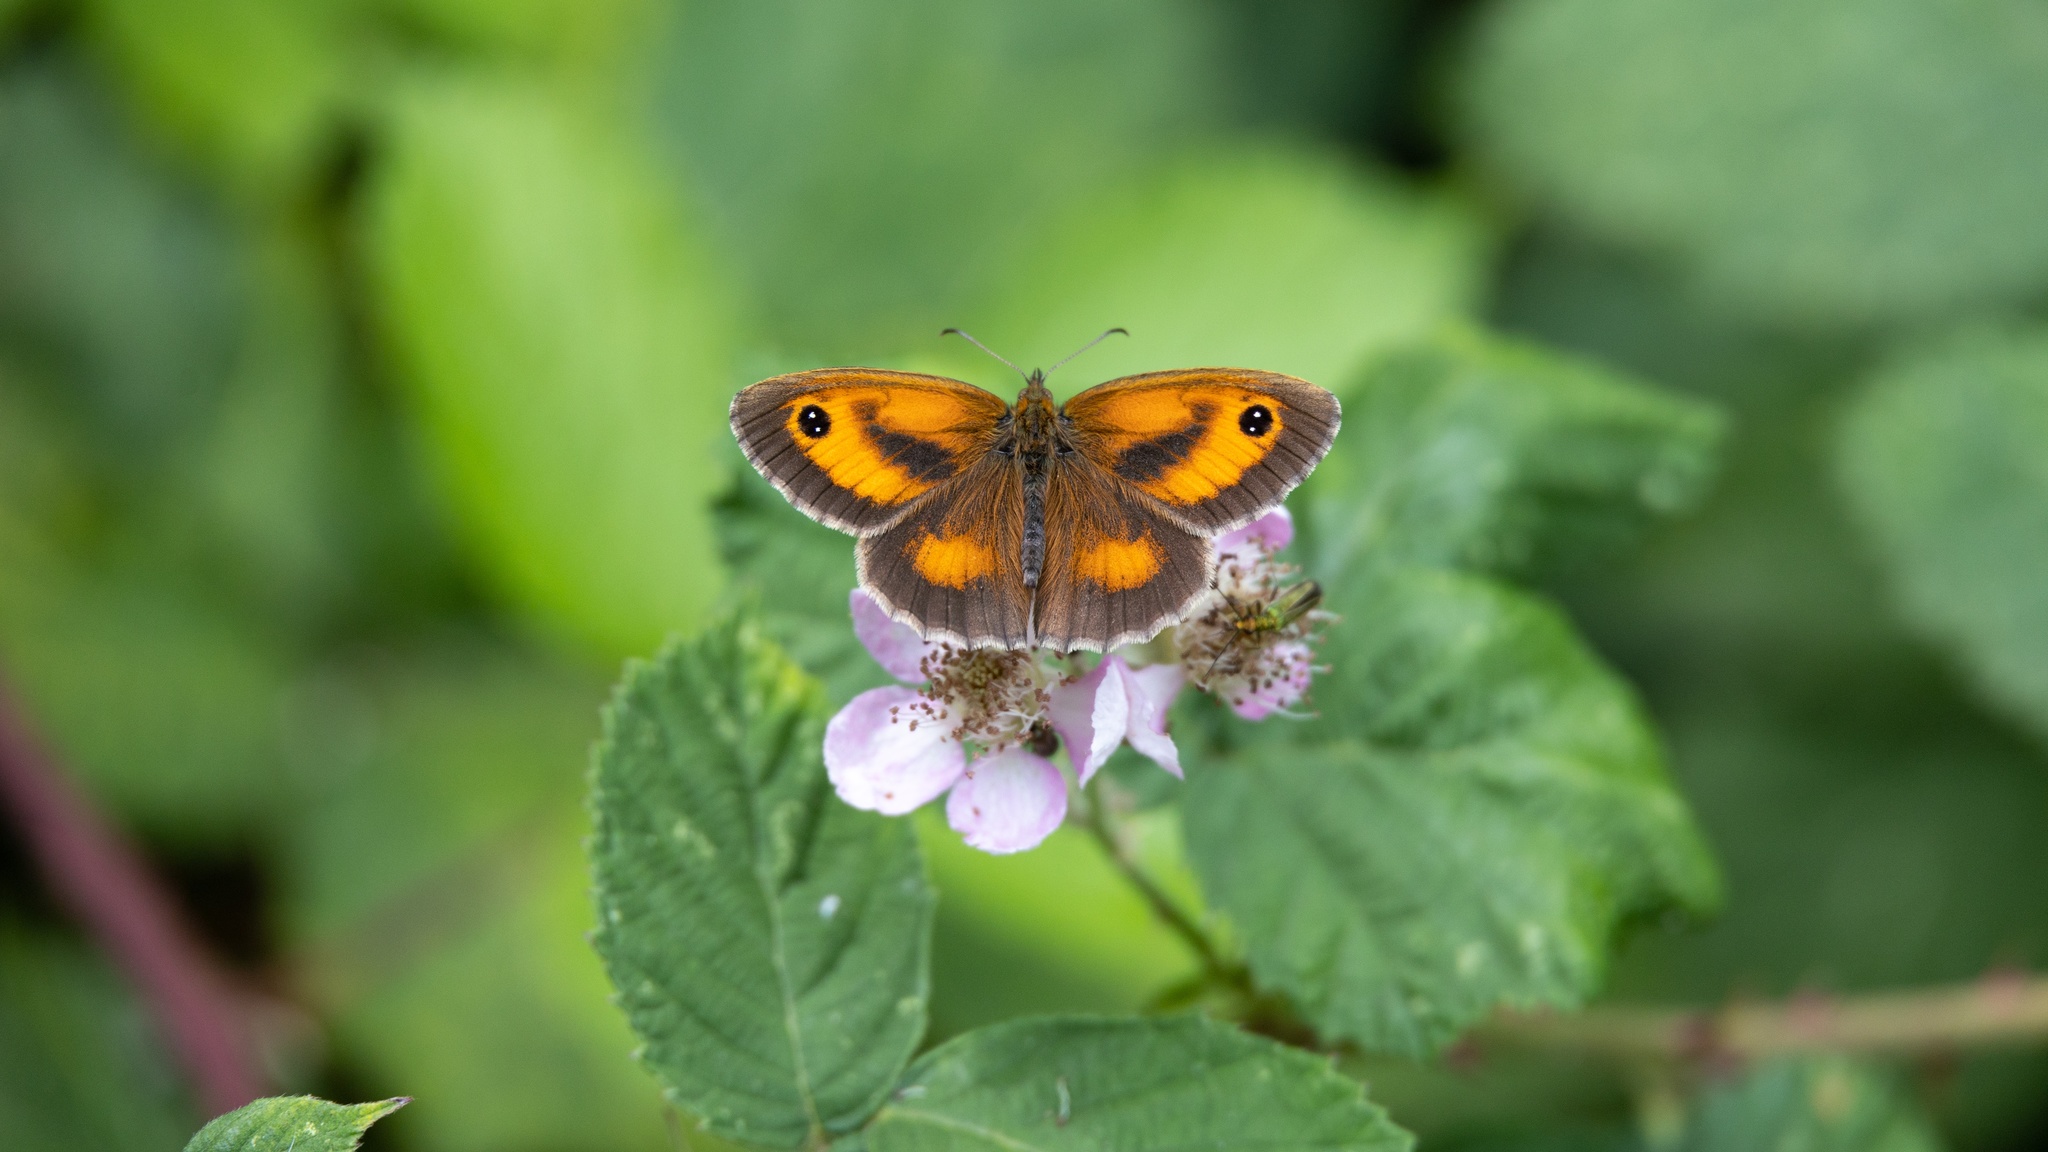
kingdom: Animalia
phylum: Arthropoda
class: Insecta
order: Lepidoptera
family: Nymphalidae
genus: Pyronia
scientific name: Pyronia tithonus
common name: Gatekeeper
